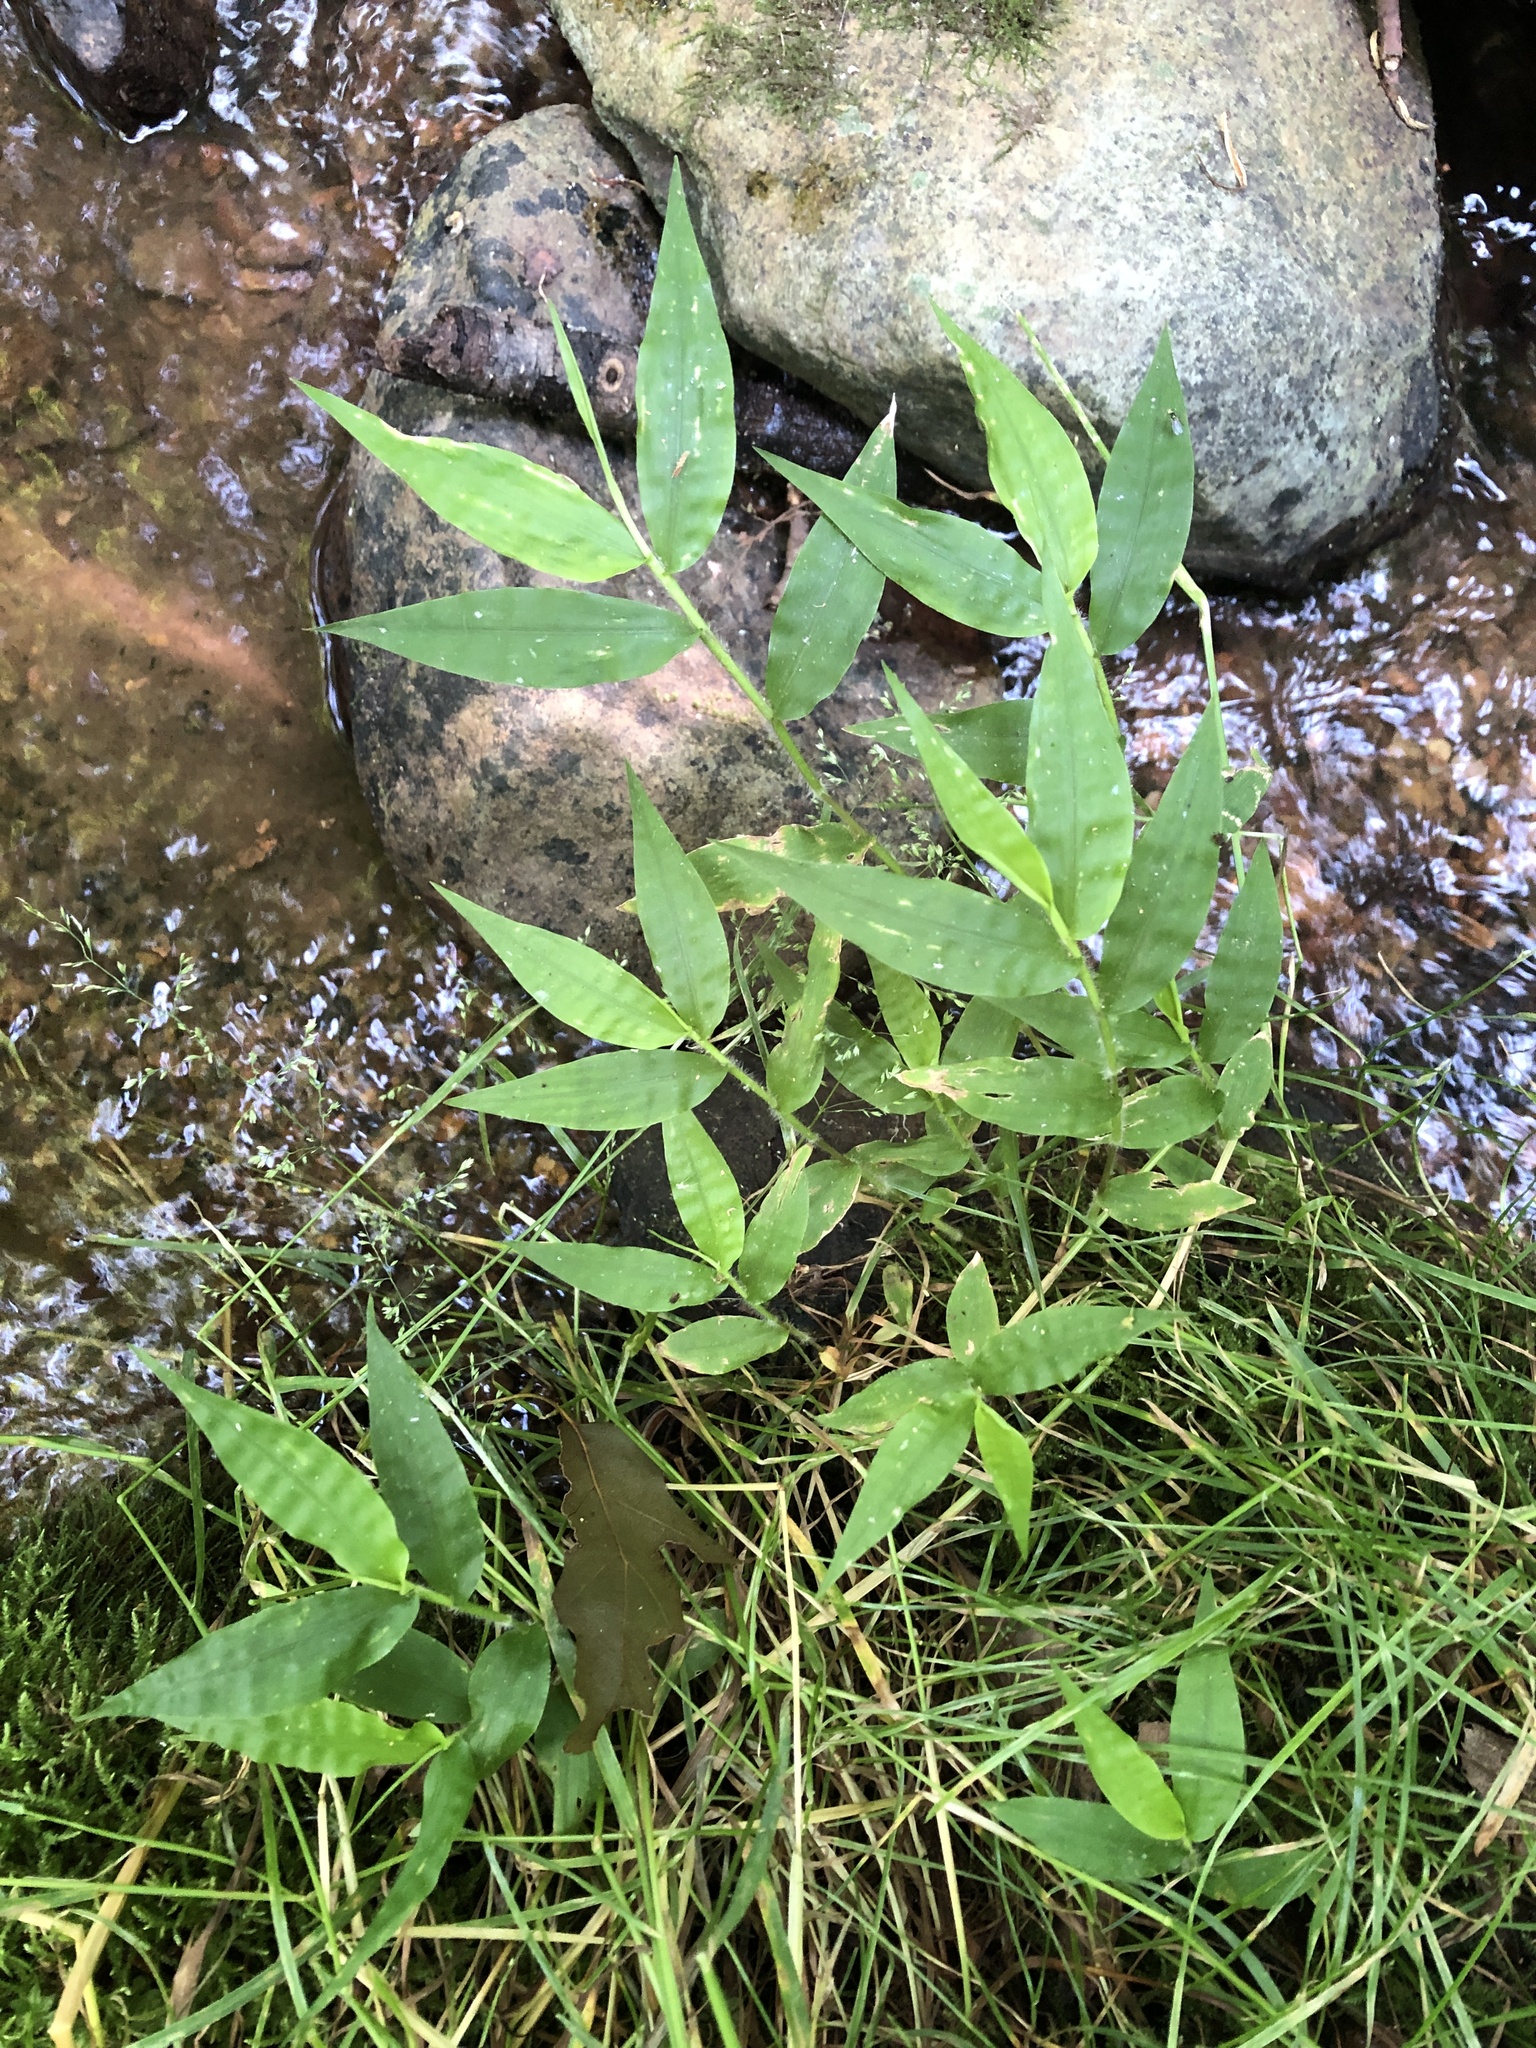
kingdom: Plantae
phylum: Tracheophyta
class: Liliopsida
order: Poales
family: Poaceae
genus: Oplismenus
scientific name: Oplismenus undulatifolius
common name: Wavyleaf basketgrass
